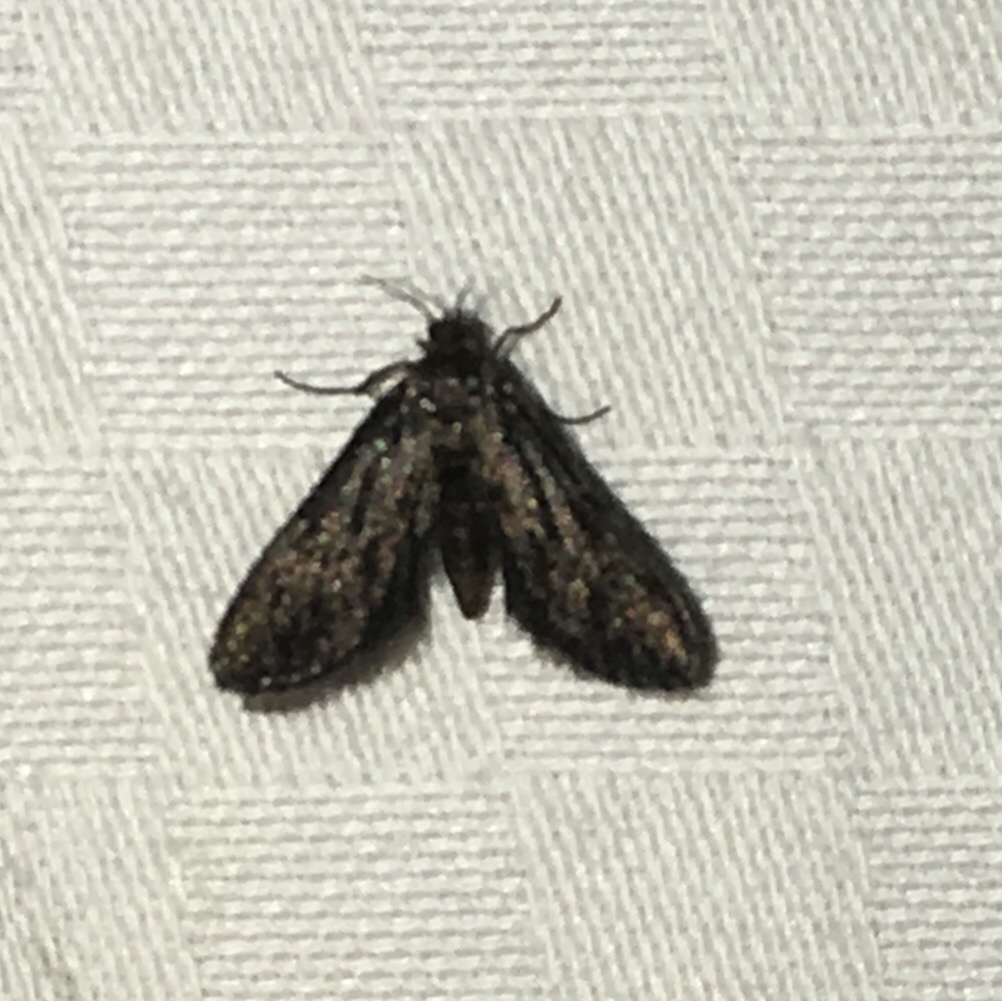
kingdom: Animalia
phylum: Arthropoda
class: Insecta
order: Lepidoptera
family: Crambidae
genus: Elophila
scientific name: Elophila tinealis
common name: Black duckweed moth
